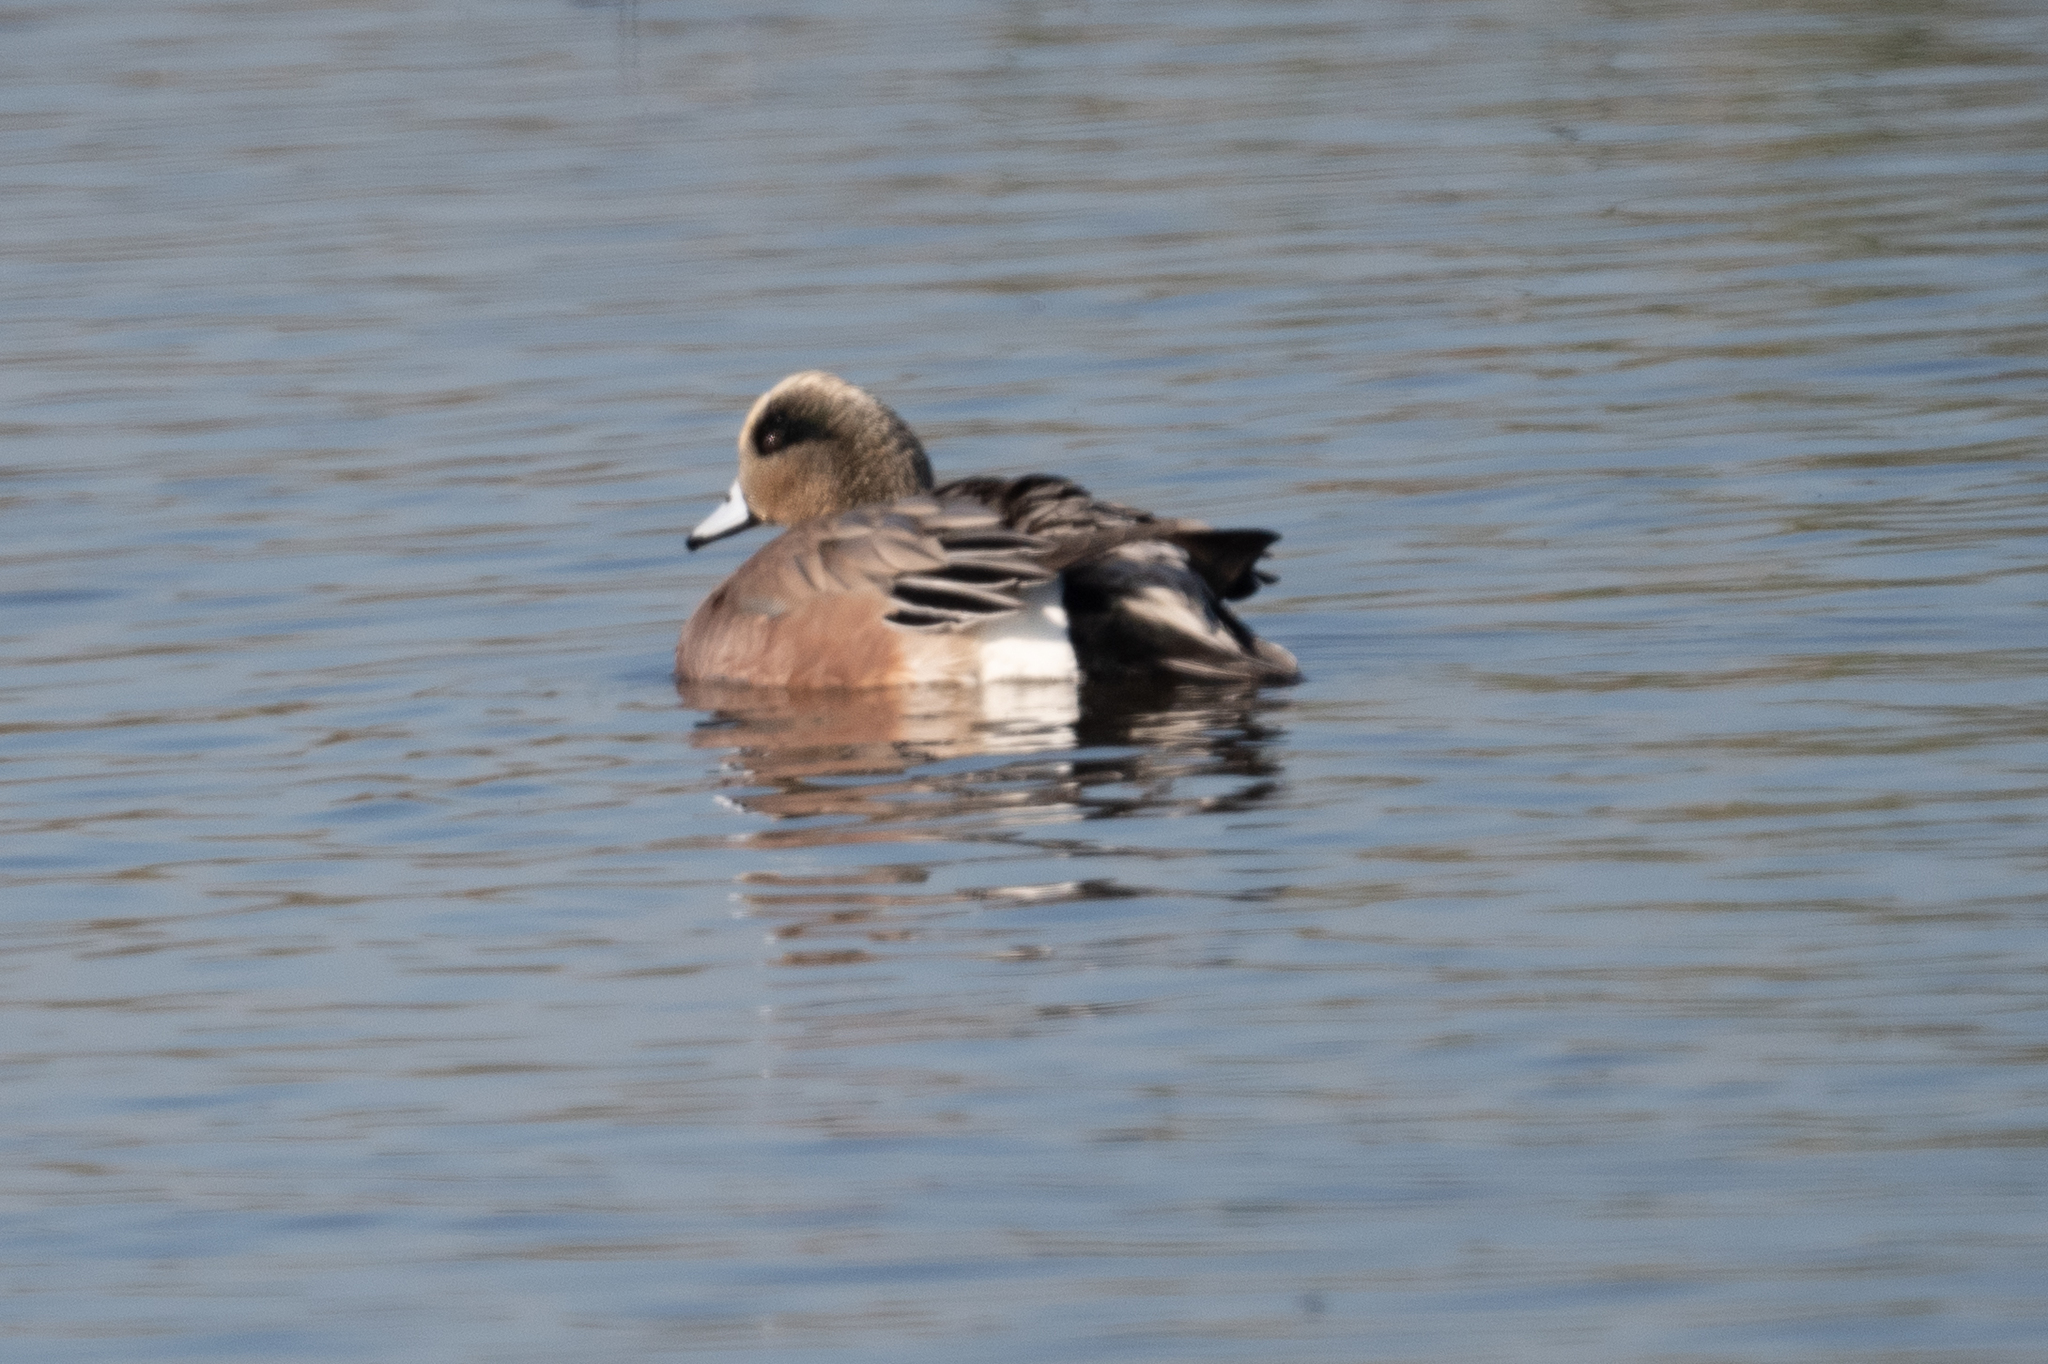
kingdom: Animalia
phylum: Chordata
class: Aves
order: Anseriformes
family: Anatidae
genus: Mareca
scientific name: Mareca americana
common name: American wigeon
